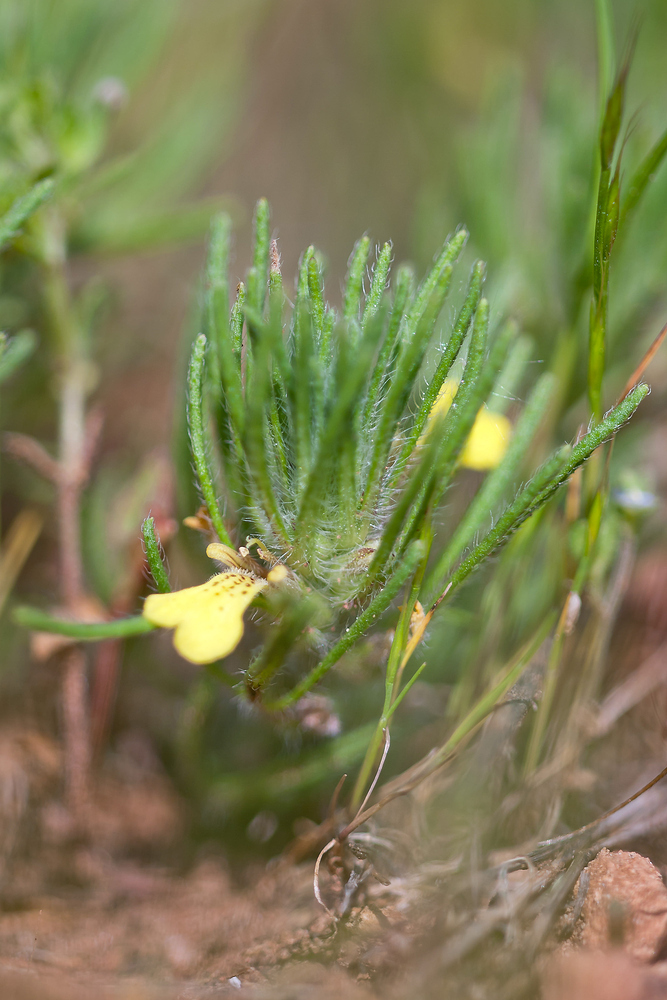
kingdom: Plantae
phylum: Tracheophyta
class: Magnoliopsida
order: Lamiales
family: Lamiaceae
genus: Ajuga
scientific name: Ajuga chamaepitys
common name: Ground-pine
